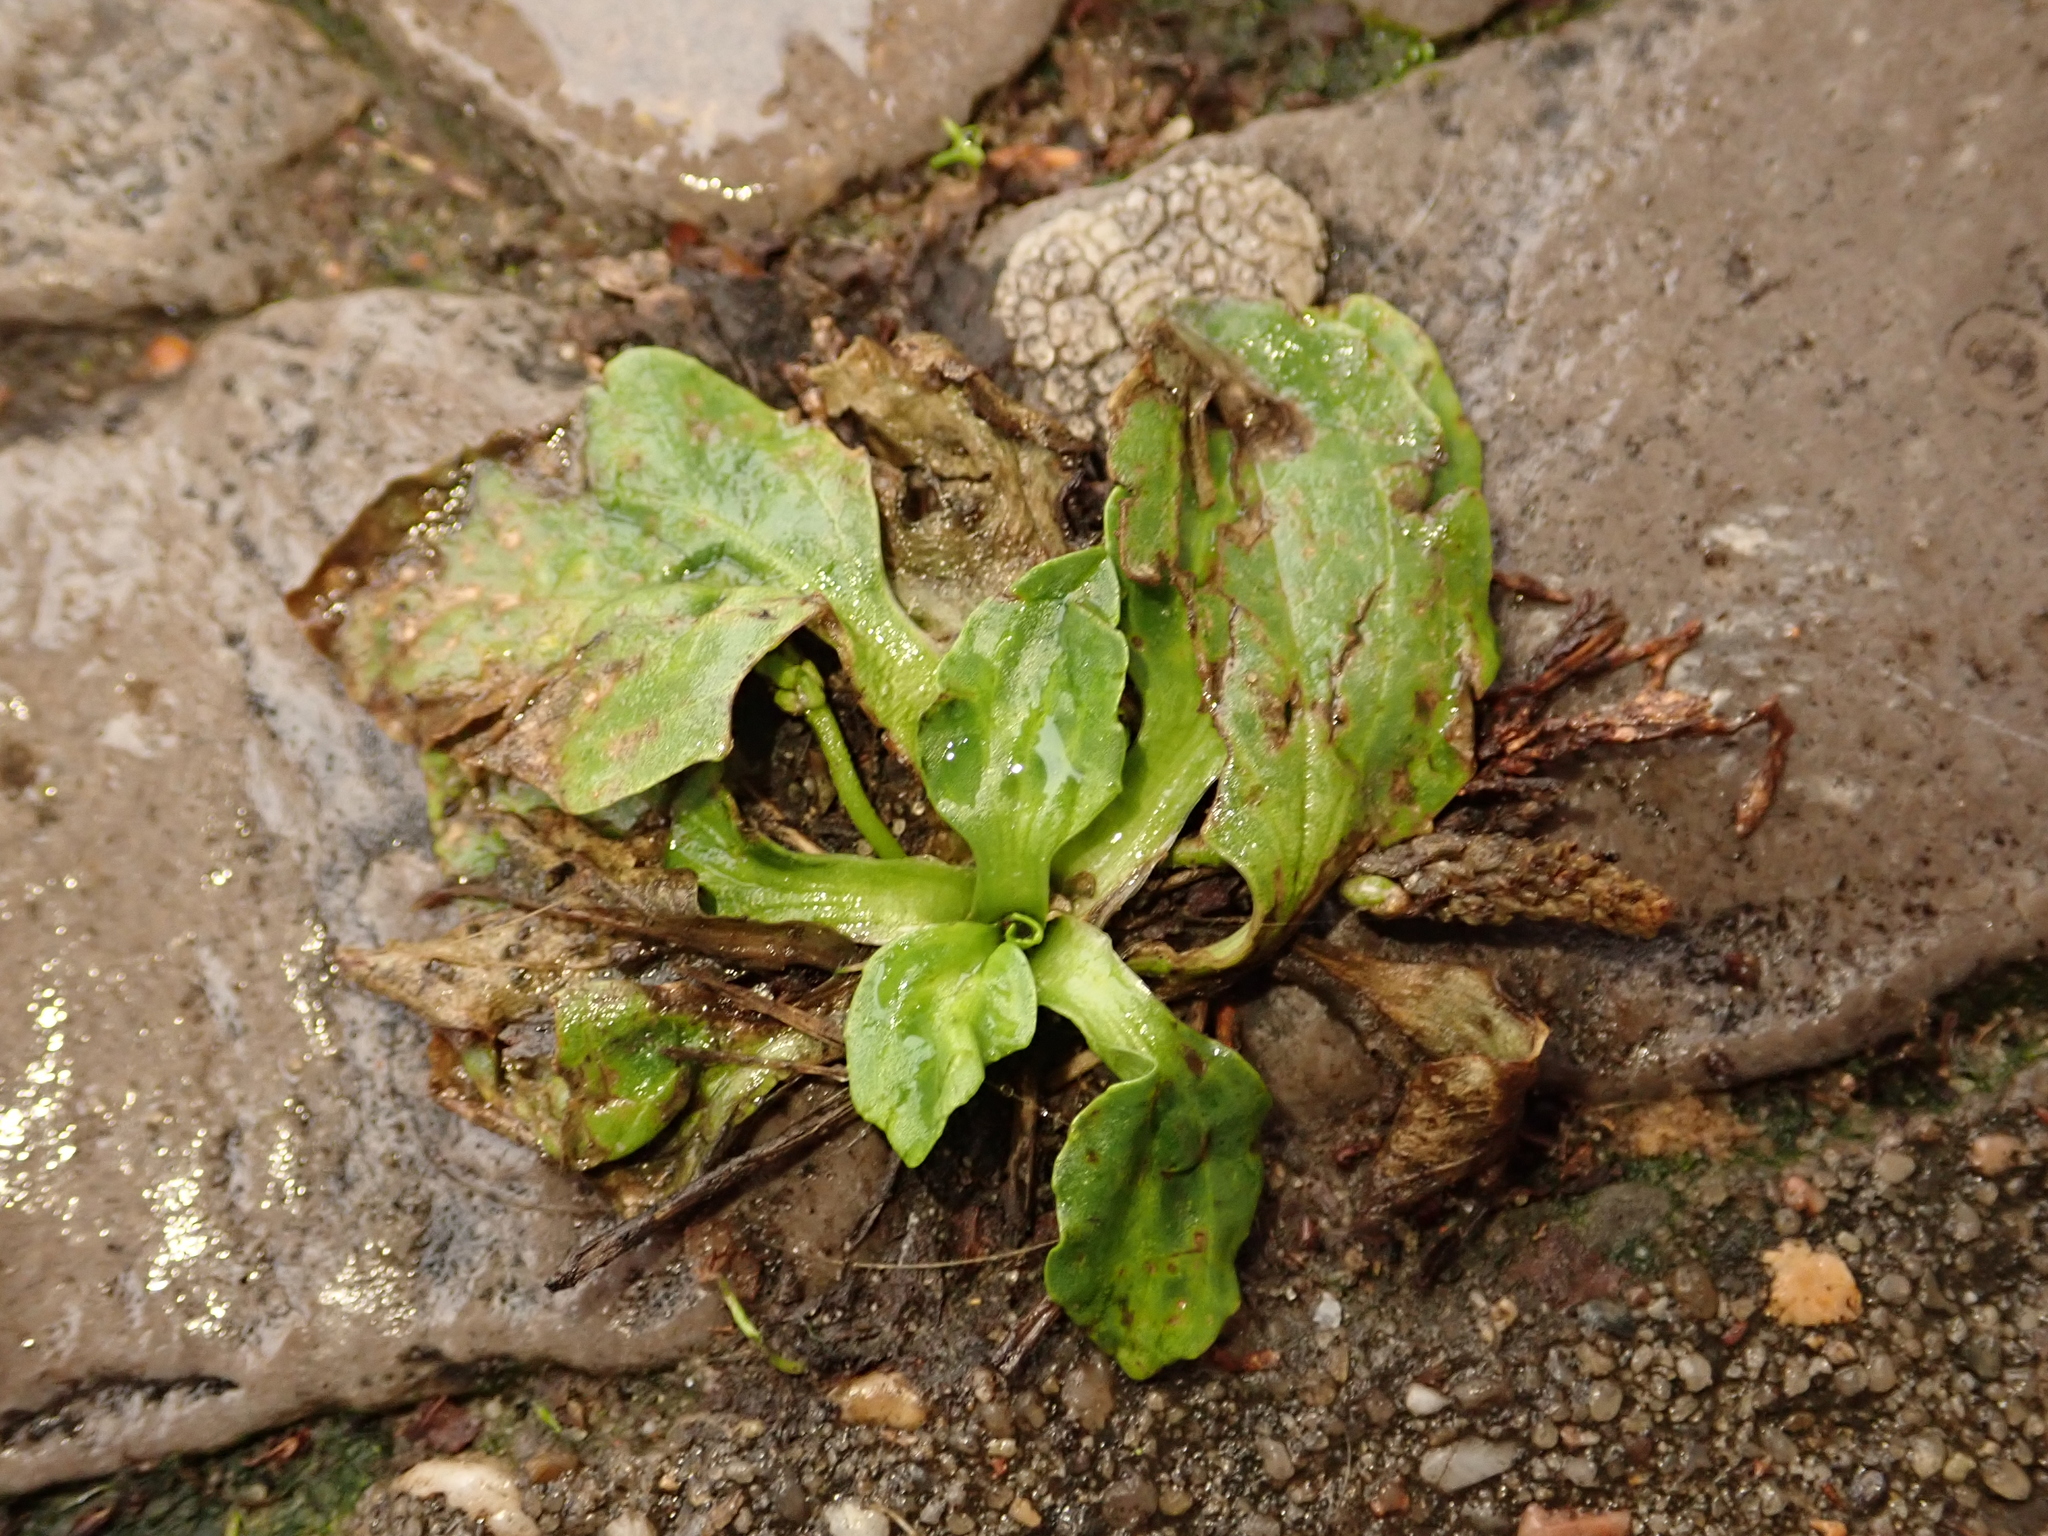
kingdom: Plantae
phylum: Tracheophyta
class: Magnoliopsida
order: Lamiales
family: Plantaginaceae
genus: Plantago
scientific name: Plantago major
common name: Common plantain
